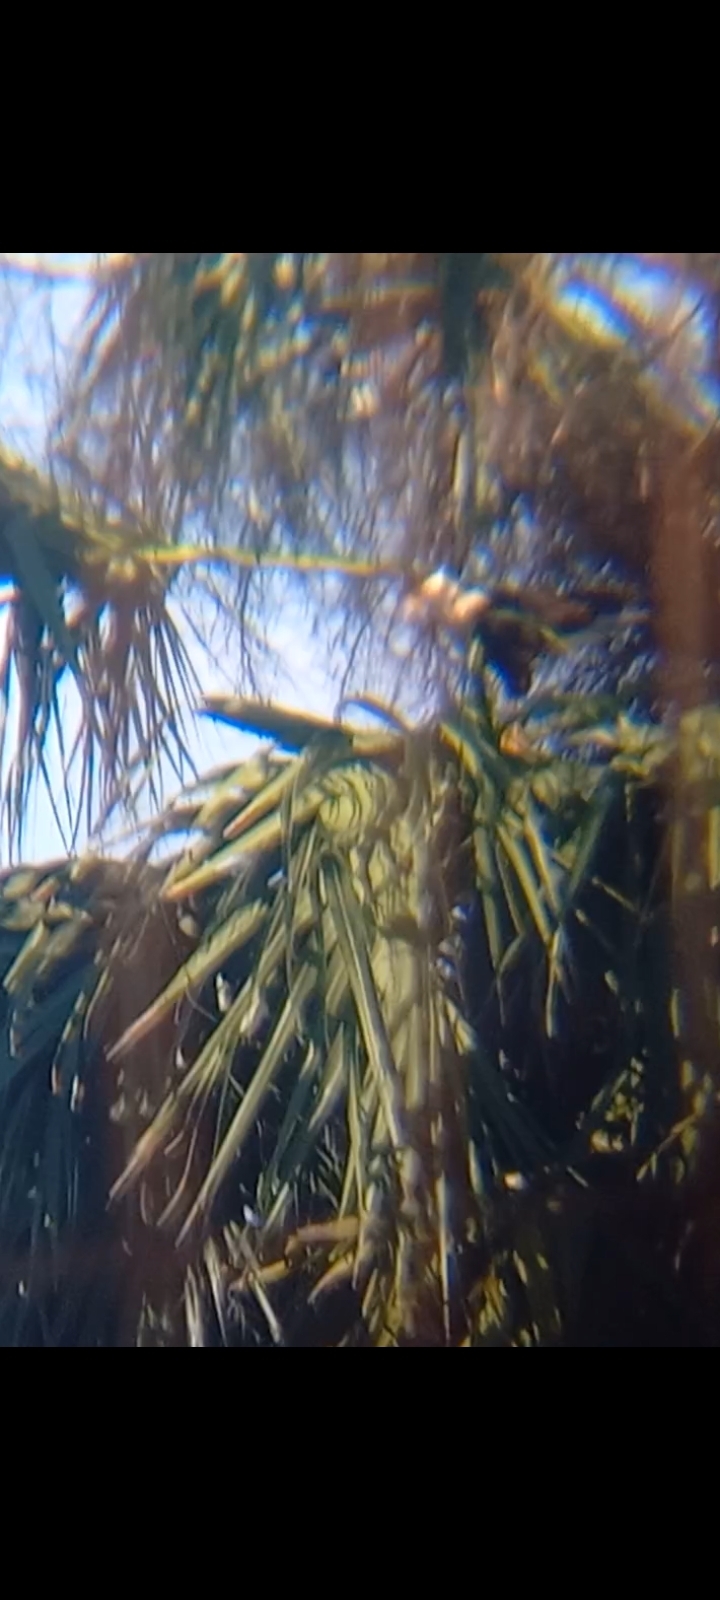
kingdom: Animalia
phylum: Chordata
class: Aves
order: Falconiformes
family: Falconidae
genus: Caracara
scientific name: Caracara plancus
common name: Southern caracara
